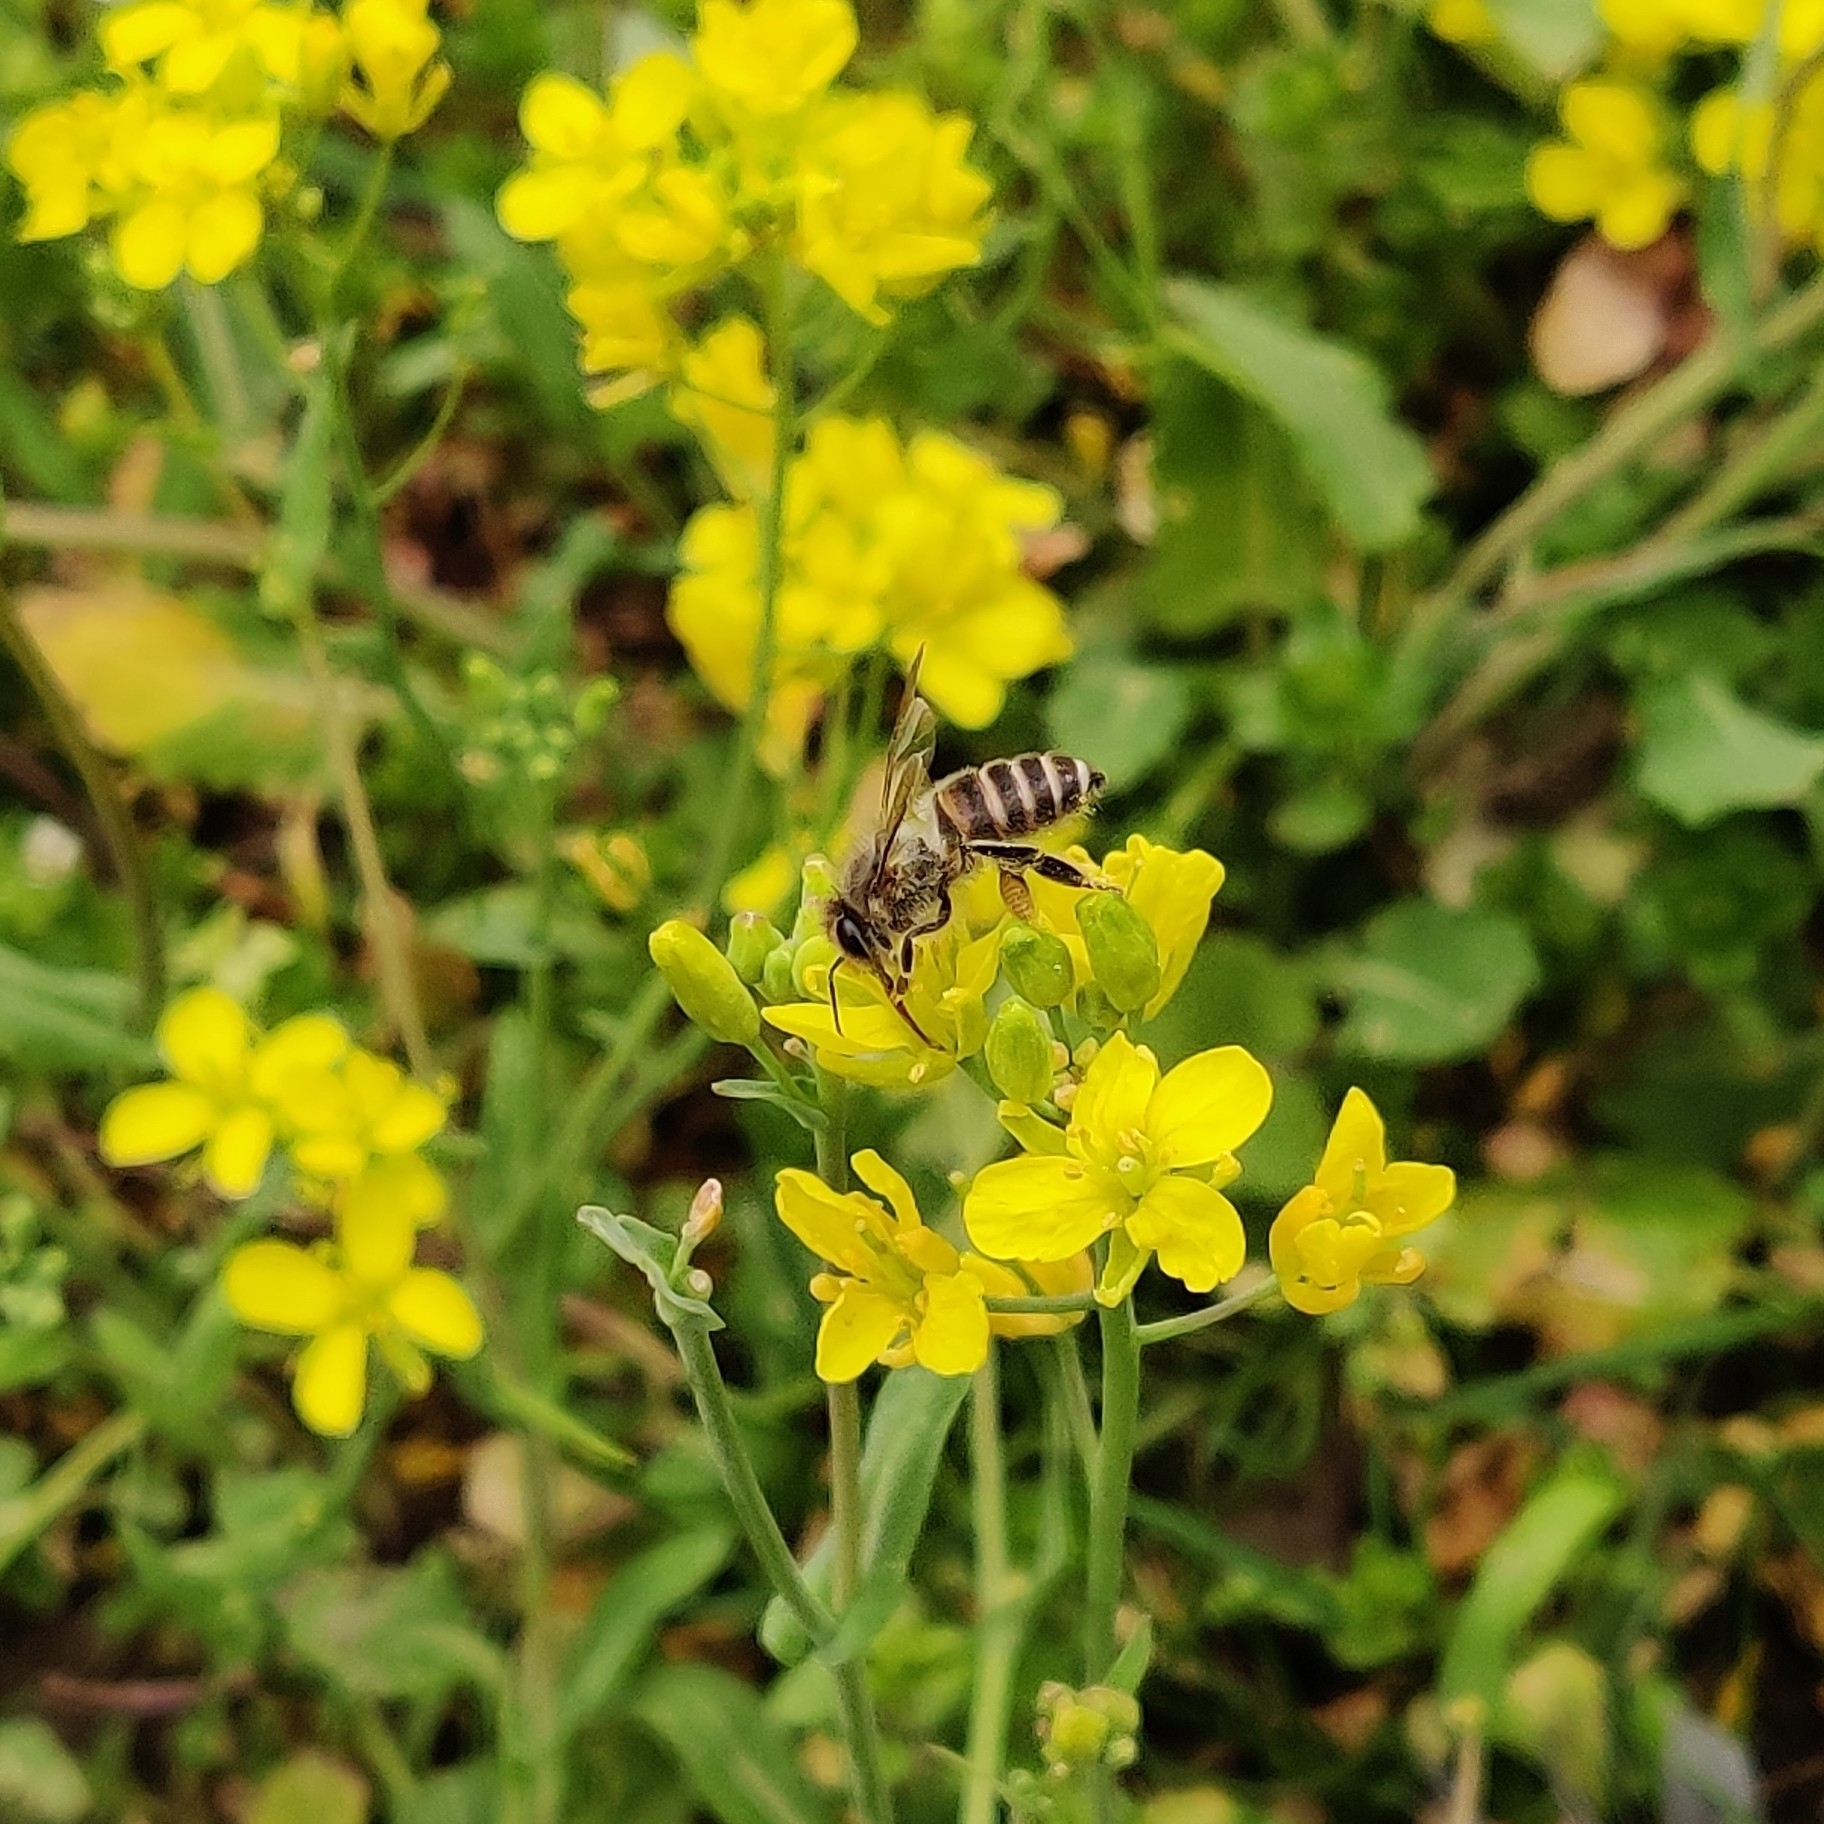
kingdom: Animalia
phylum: Arthropoda
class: Insecta
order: Hymenoptera
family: Apidae
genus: Apis
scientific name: Apis cerana
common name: Honey bee
